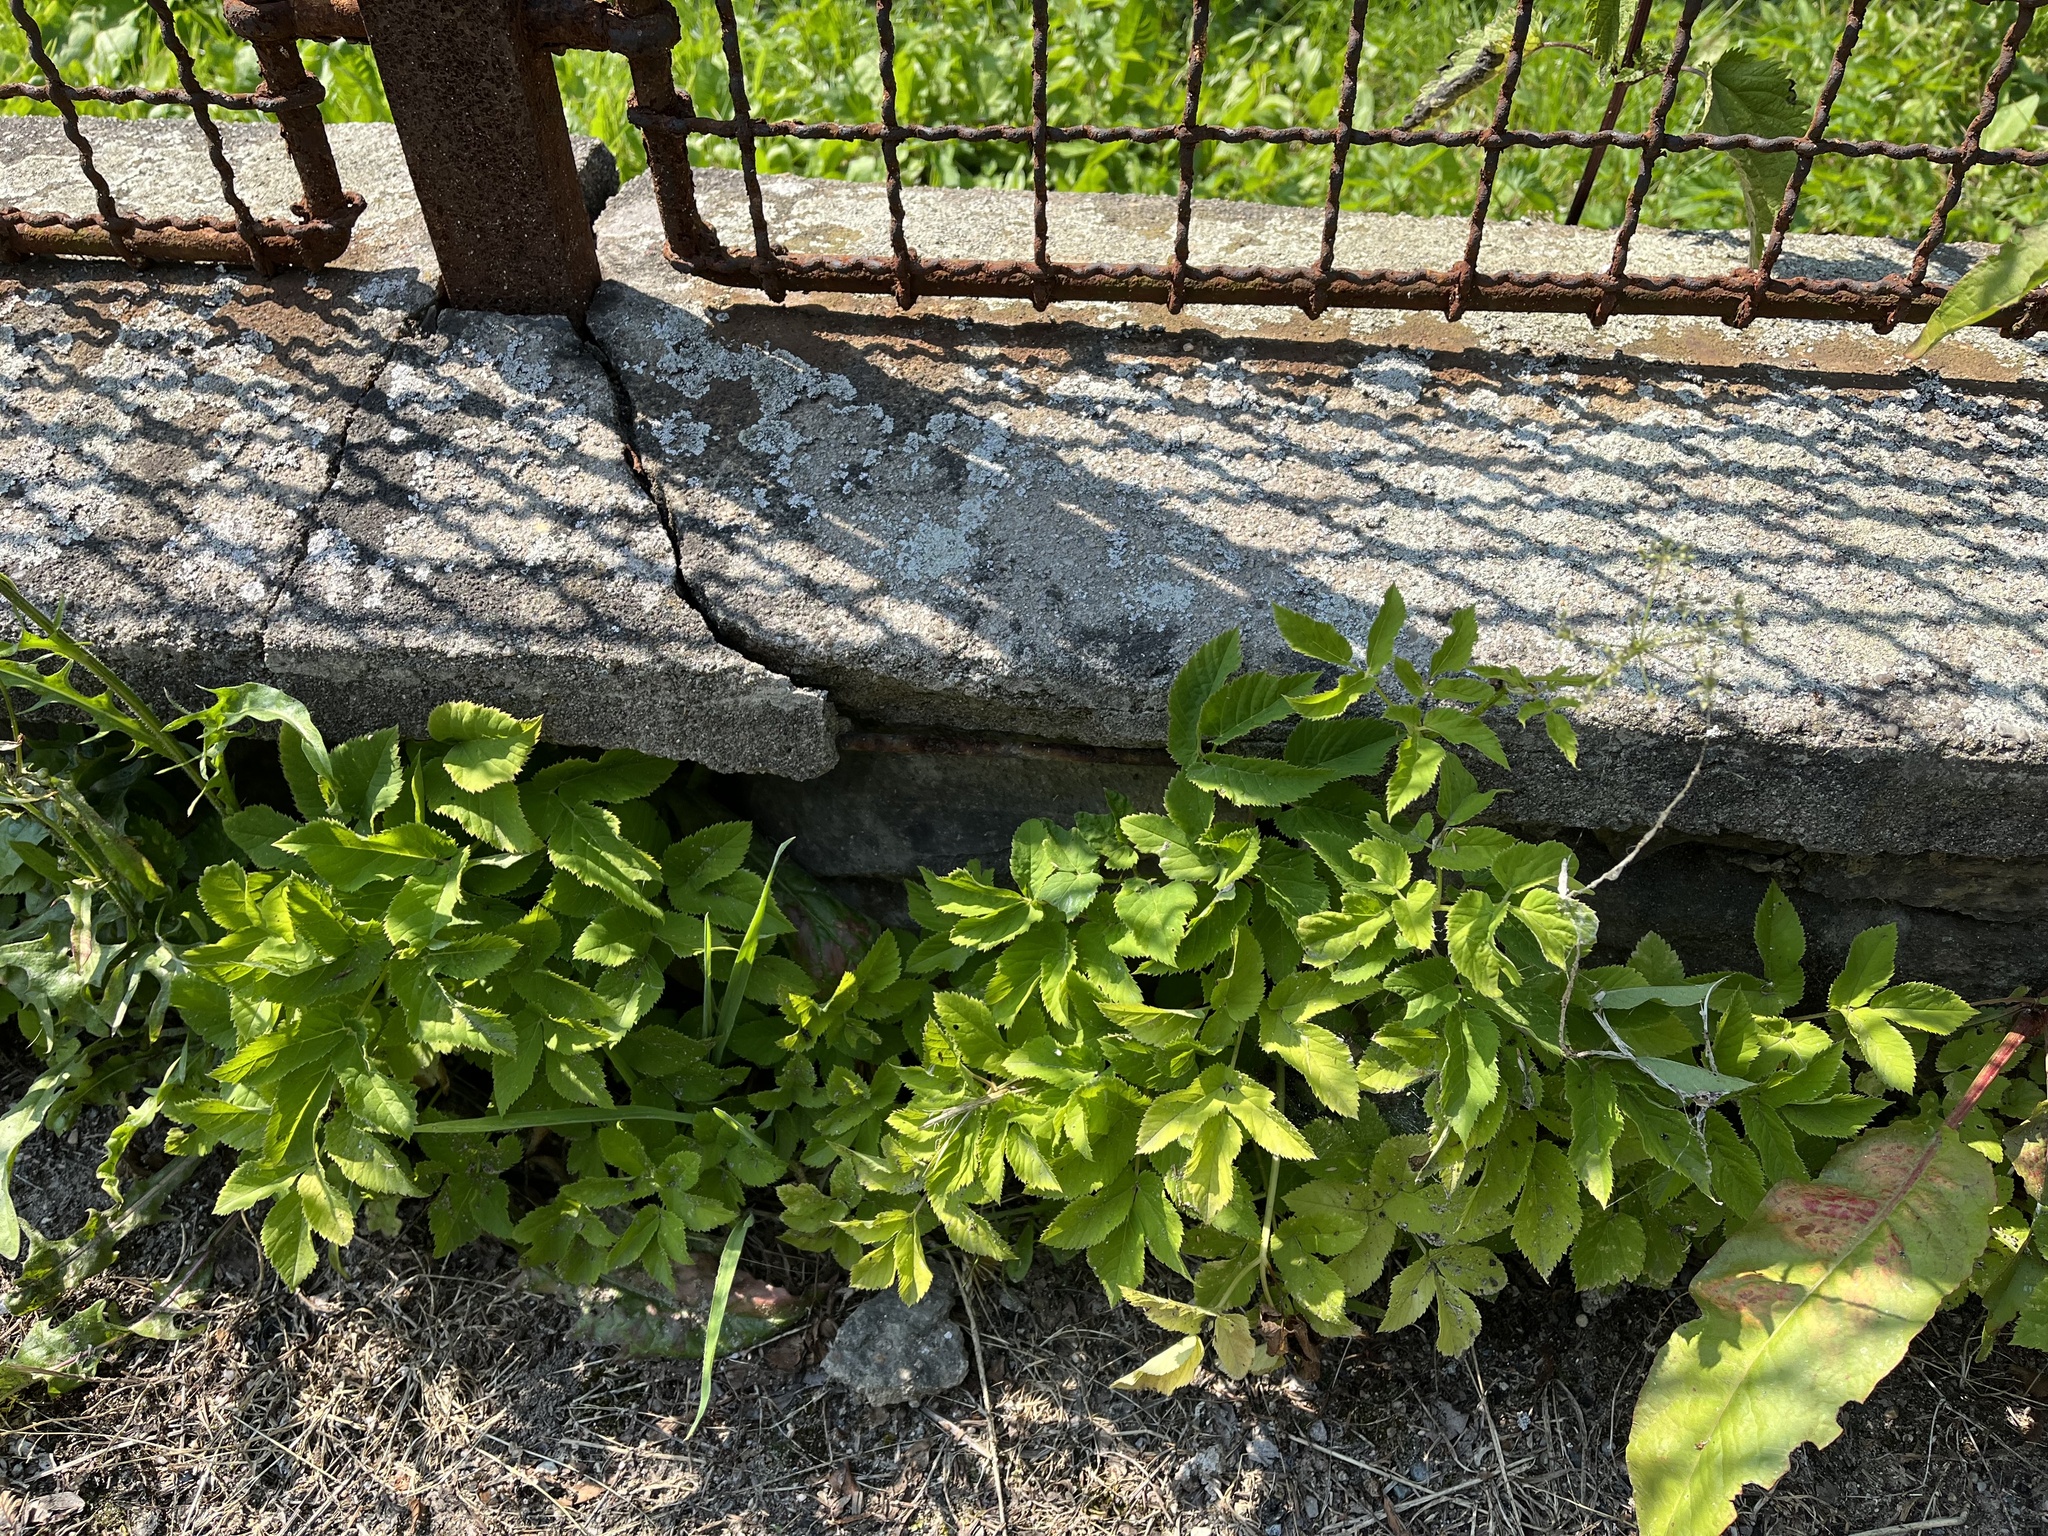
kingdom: Plantae
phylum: Tracheophyta
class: Magnoliopsida
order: Apiales
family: Apiaceae
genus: Aegopodium
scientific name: Aegopodium podagraria
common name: Ground-elder
